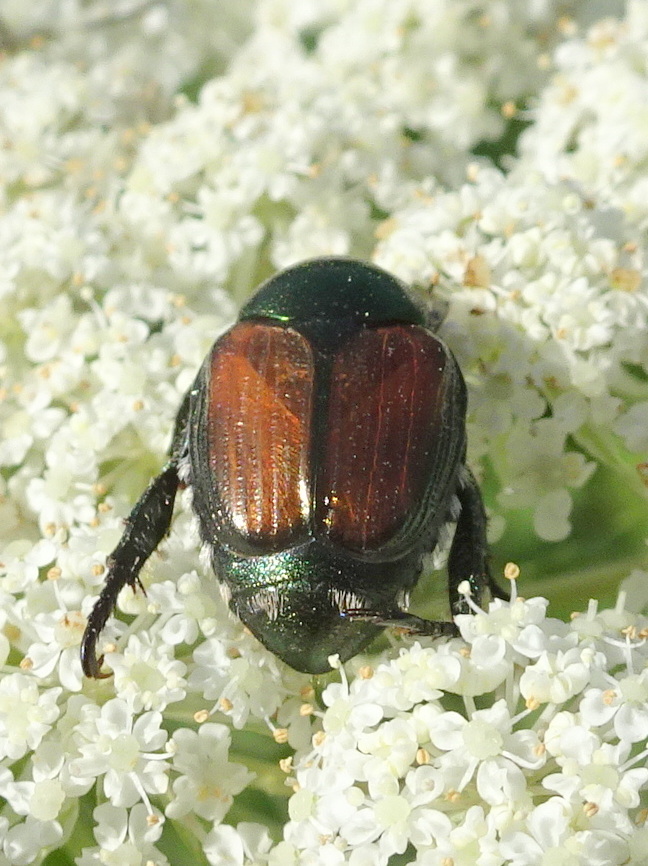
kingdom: Animalia
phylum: Arthropoda
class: Insecta
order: Coleoptera
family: Scarabaeidae
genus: Popillia
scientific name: Popillia japonica
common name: Japanese beetle
